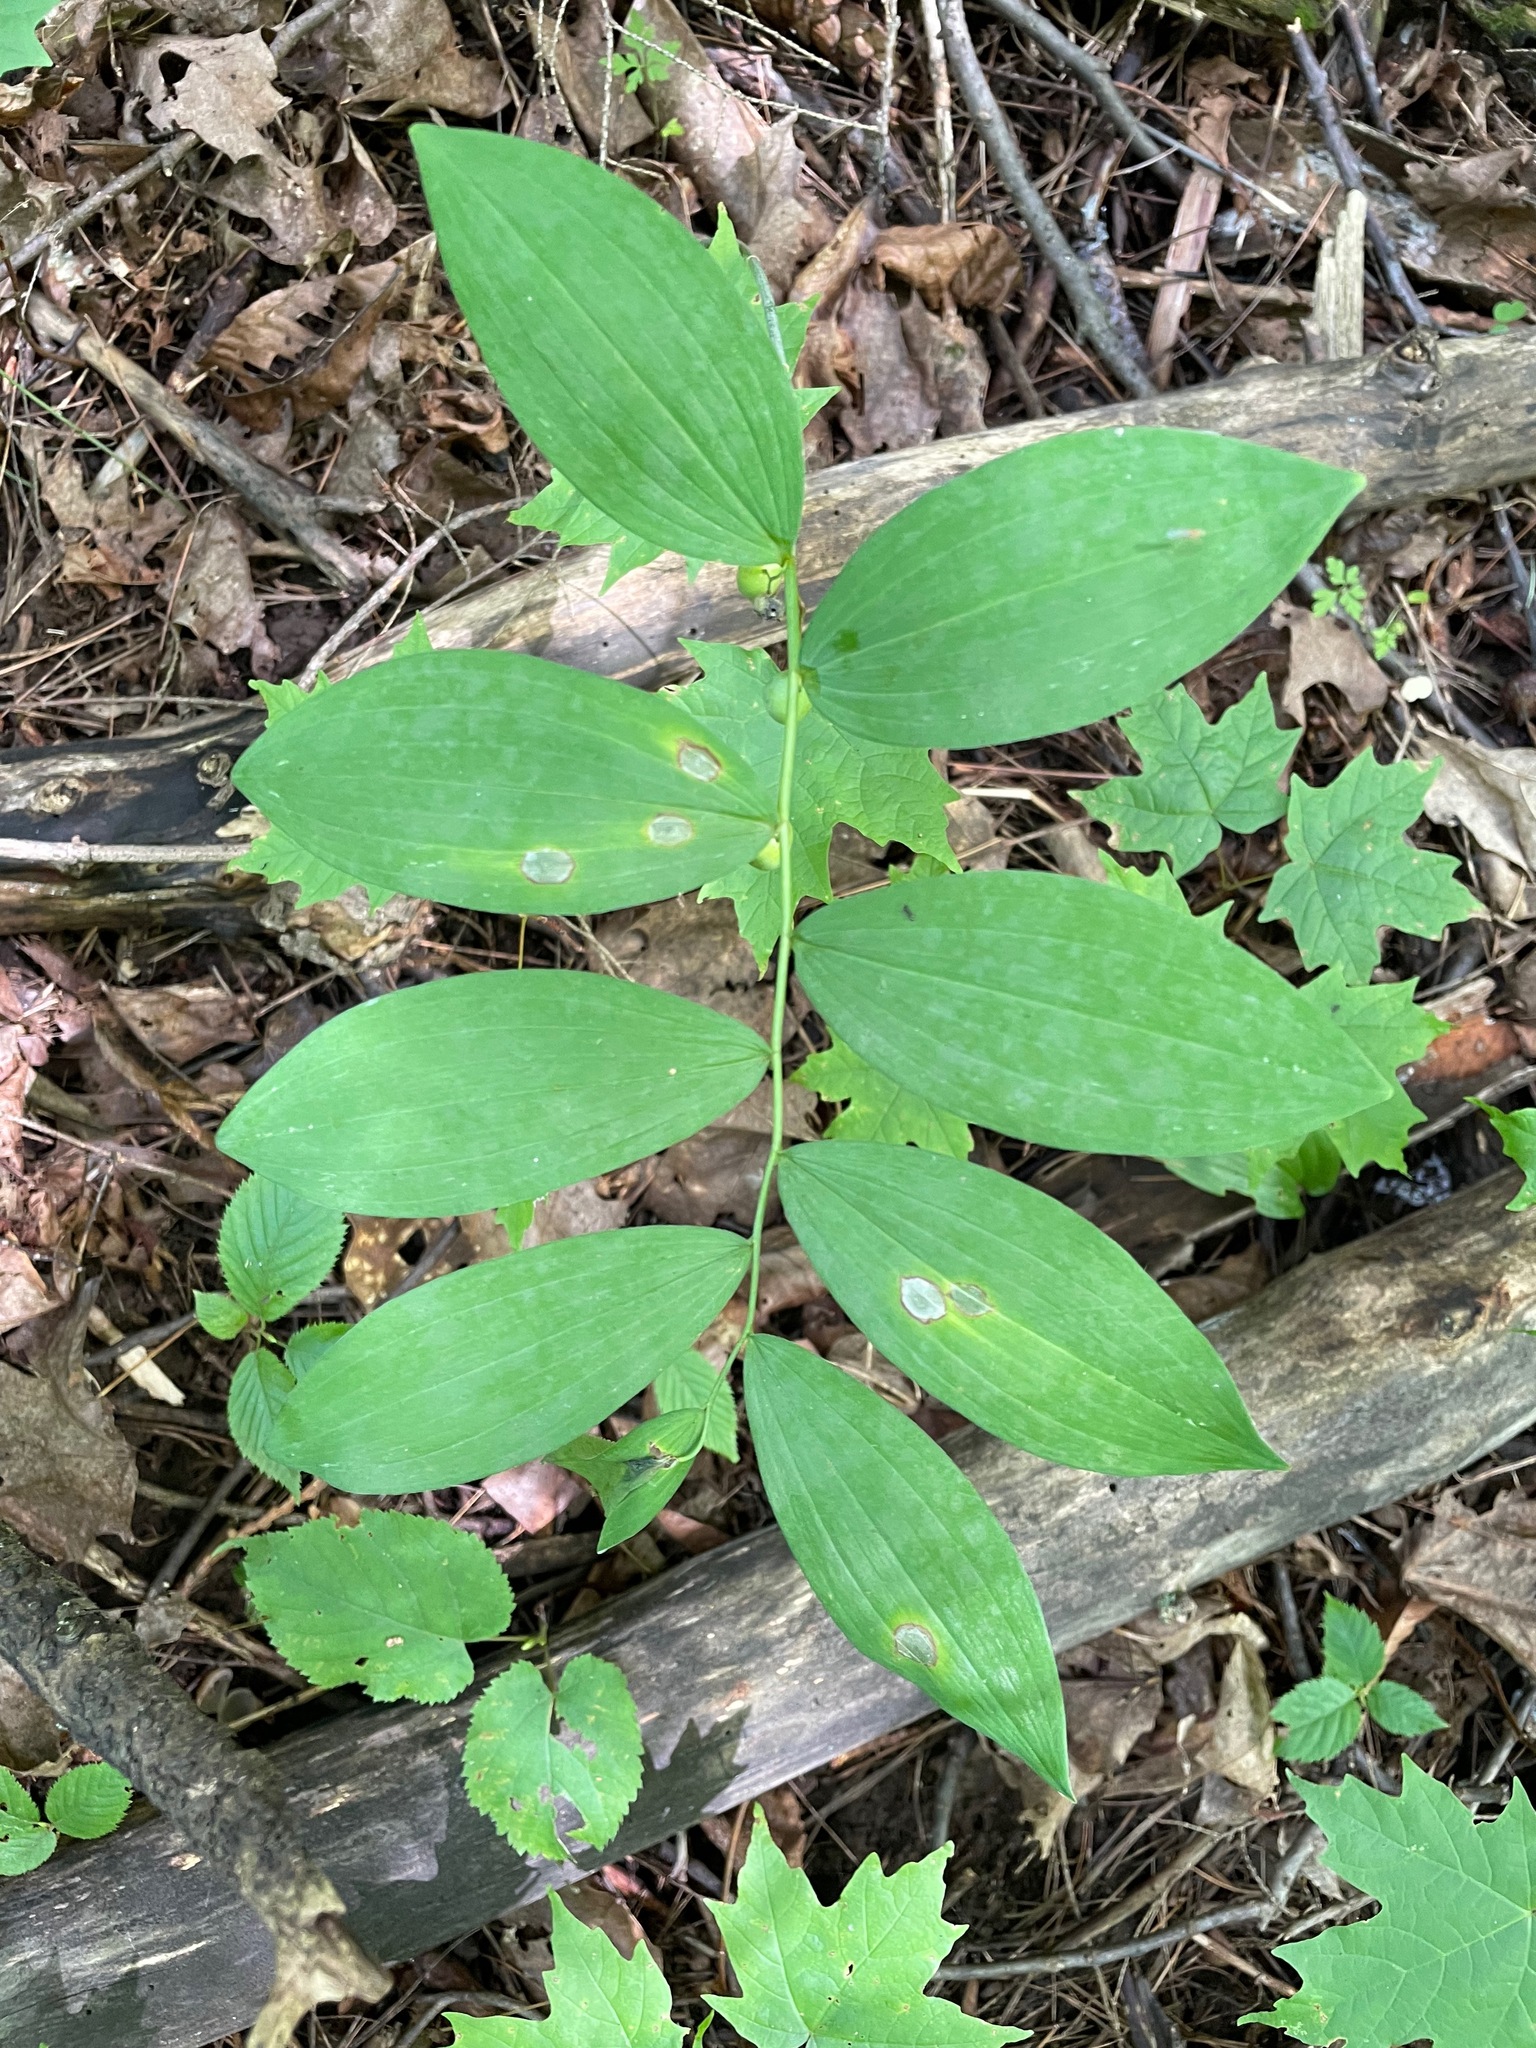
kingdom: Plantae
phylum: Tracheophyta
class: Liliopsida
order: Asparagales
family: Asparagaceae
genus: Polygonatum
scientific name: Polygonatum pubescens
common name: Downy solomon's seal
